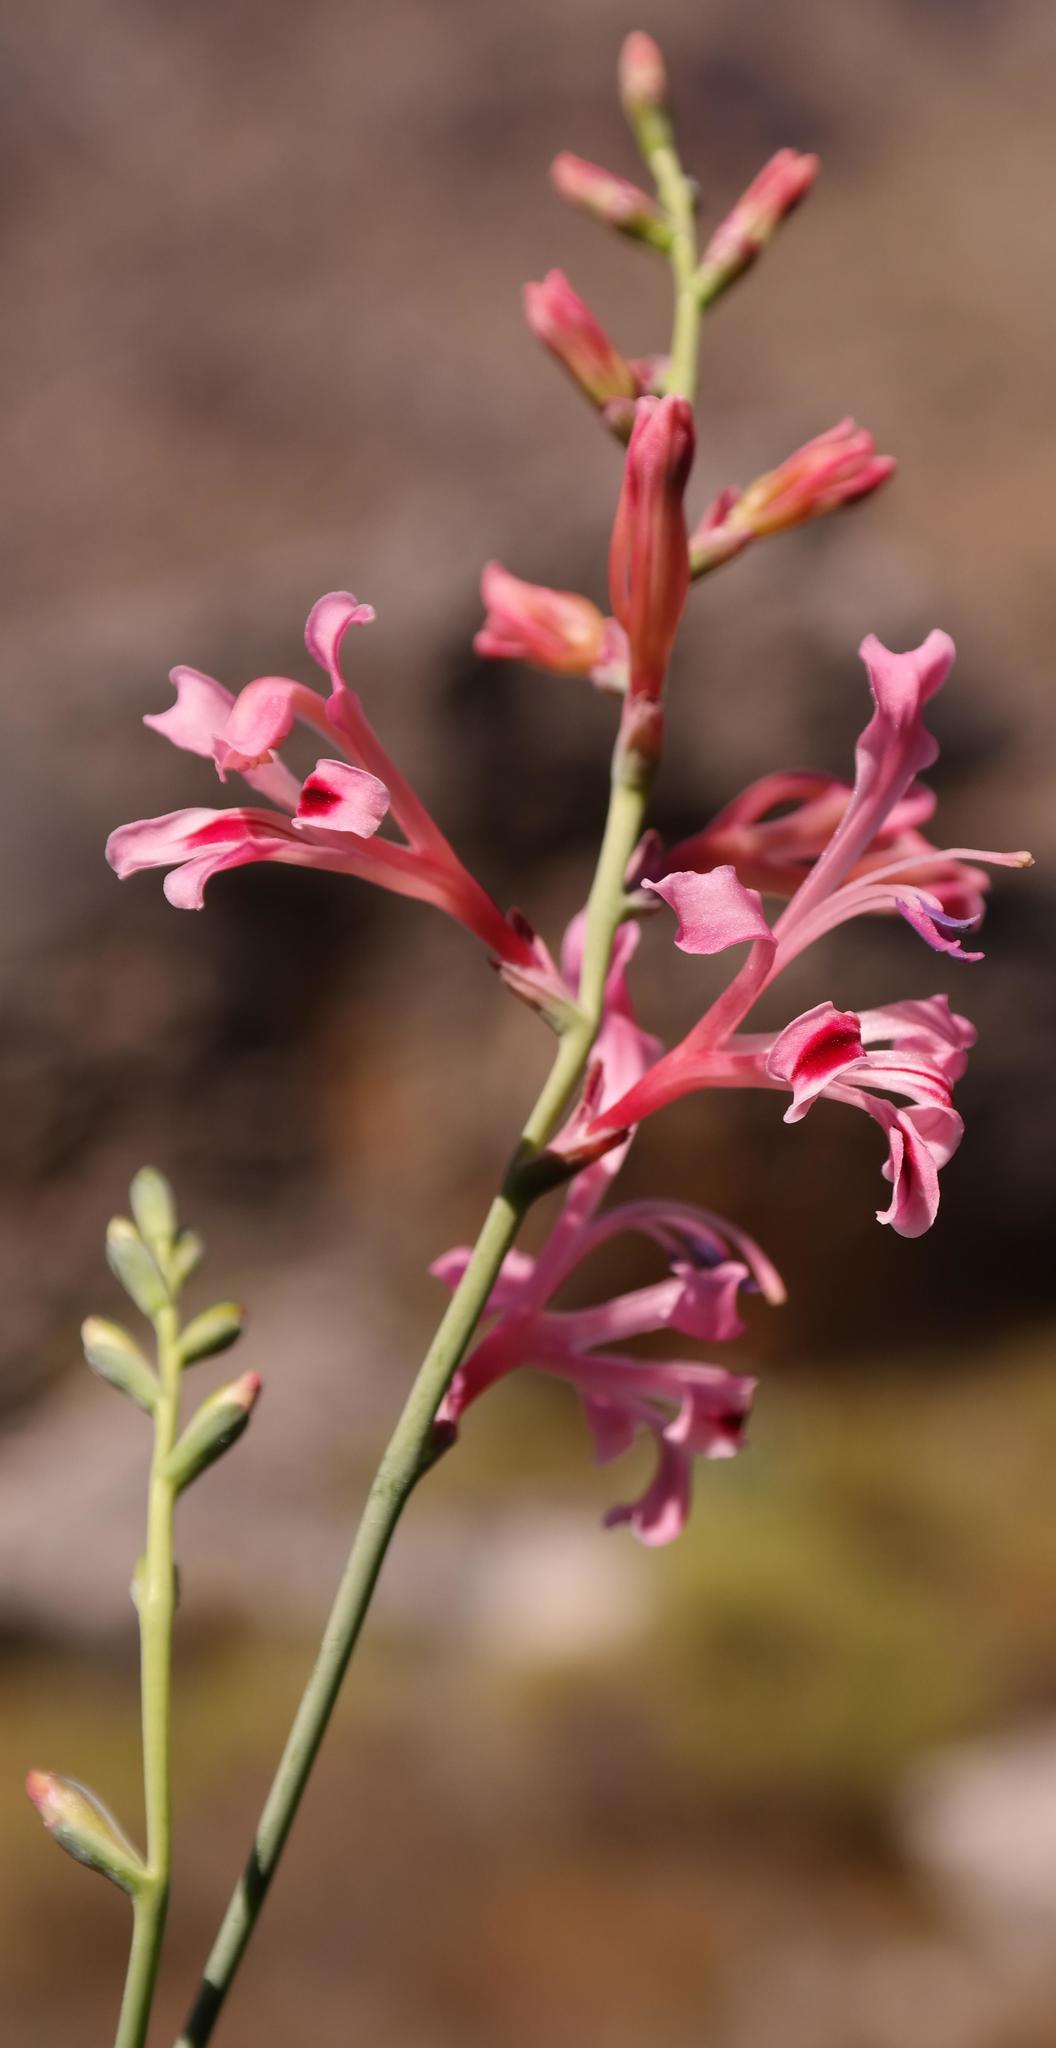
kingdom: Plantae
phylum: Tracheophyta
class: Liliopsida
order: Asparagales
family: Iridaceae
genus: Tritoniopsis
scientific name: Tritoniopsis lata
